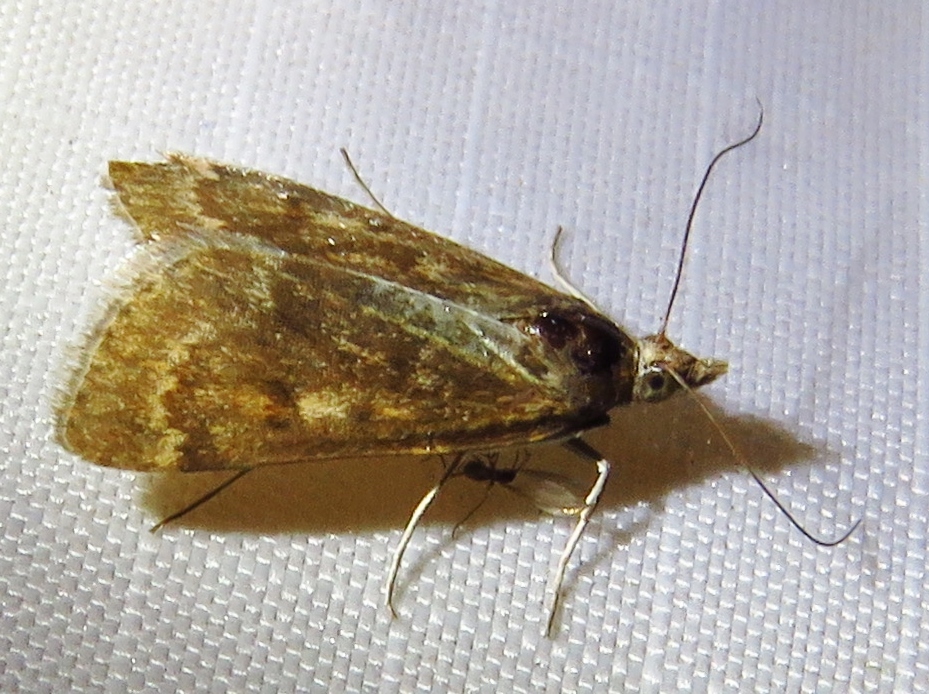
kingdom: Animalia
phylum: Arthropoda
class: Insecta
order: Lepidoptera
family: Crambidae
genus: Achyra
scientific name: Achyra rantalis
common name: Garden webworm
